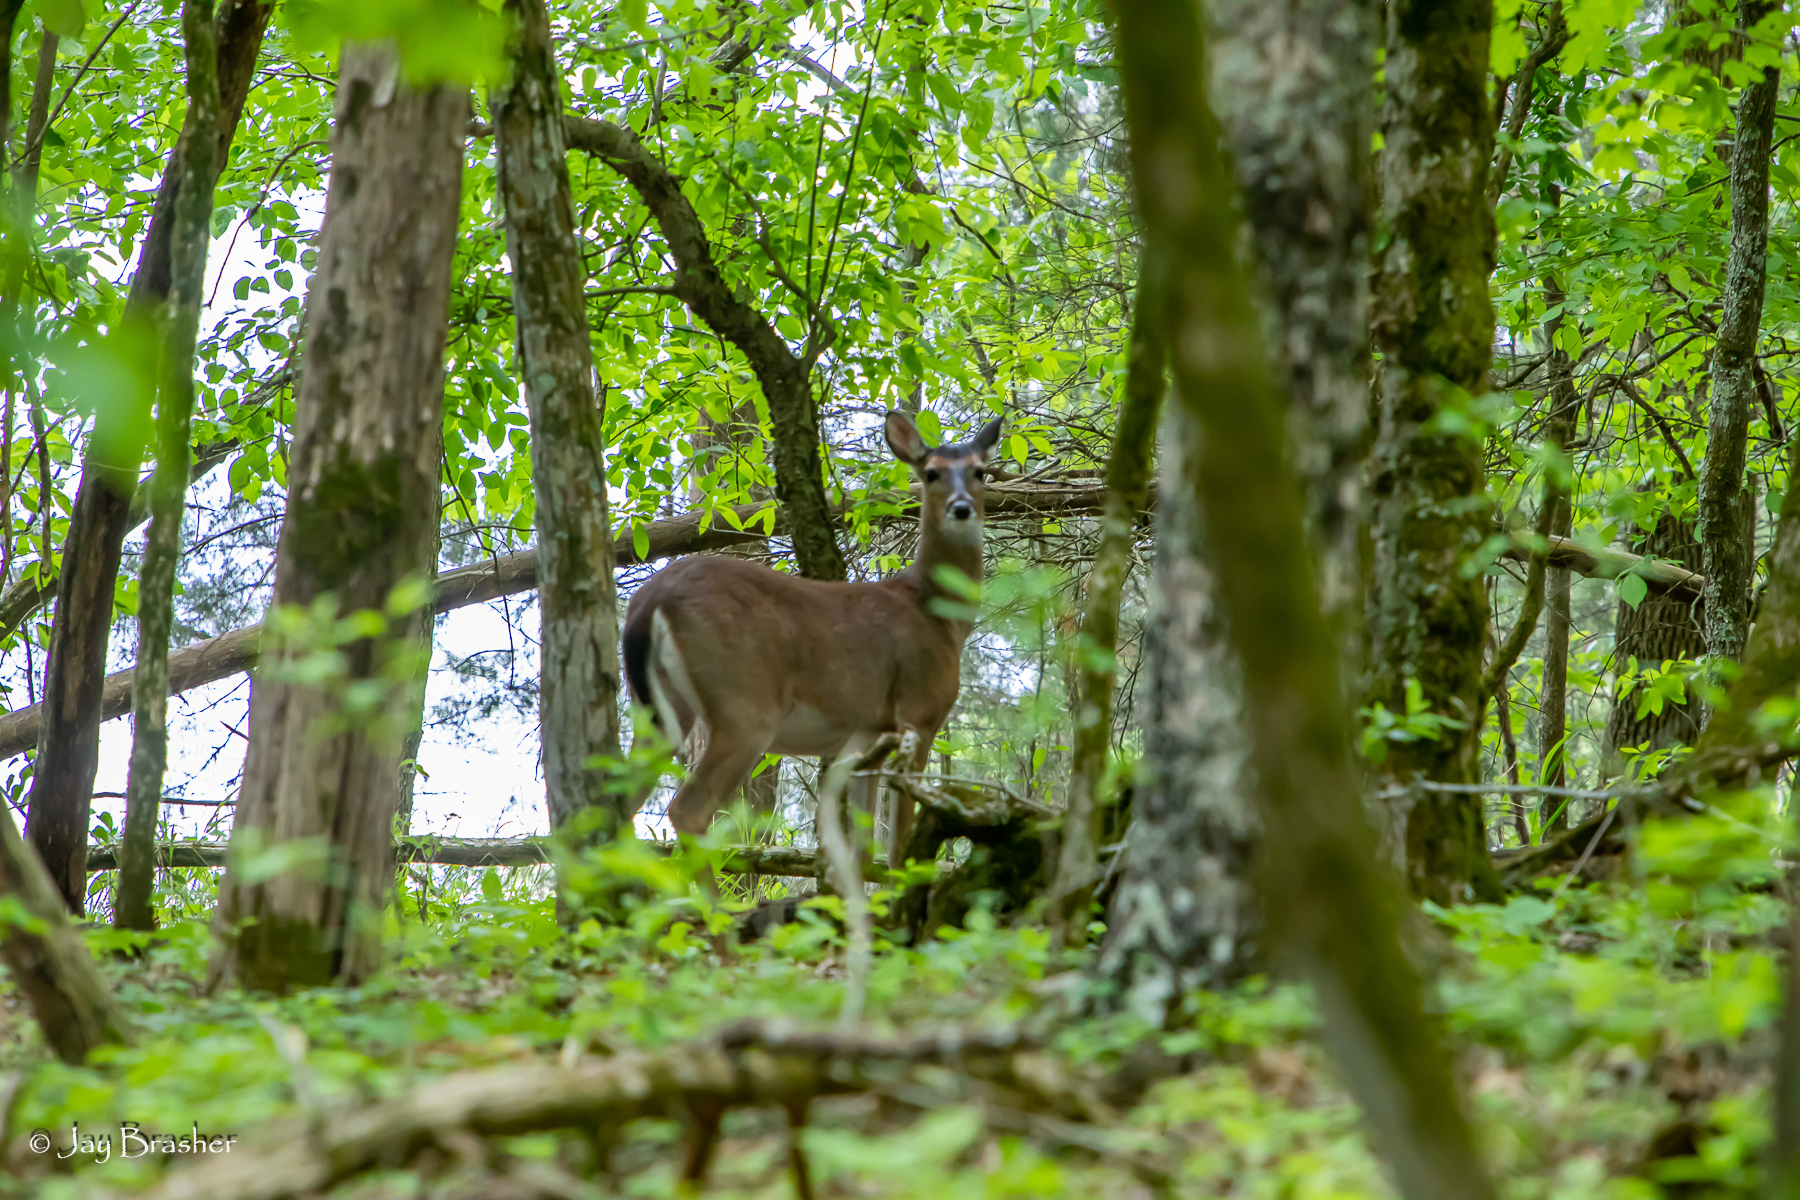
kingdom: Animalia
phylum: Chordata
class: Mammalia
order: Artiodactyla
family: Cervidae
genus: Odocoileus
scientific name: Odocoileus virginianus
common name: White-tailed deer
